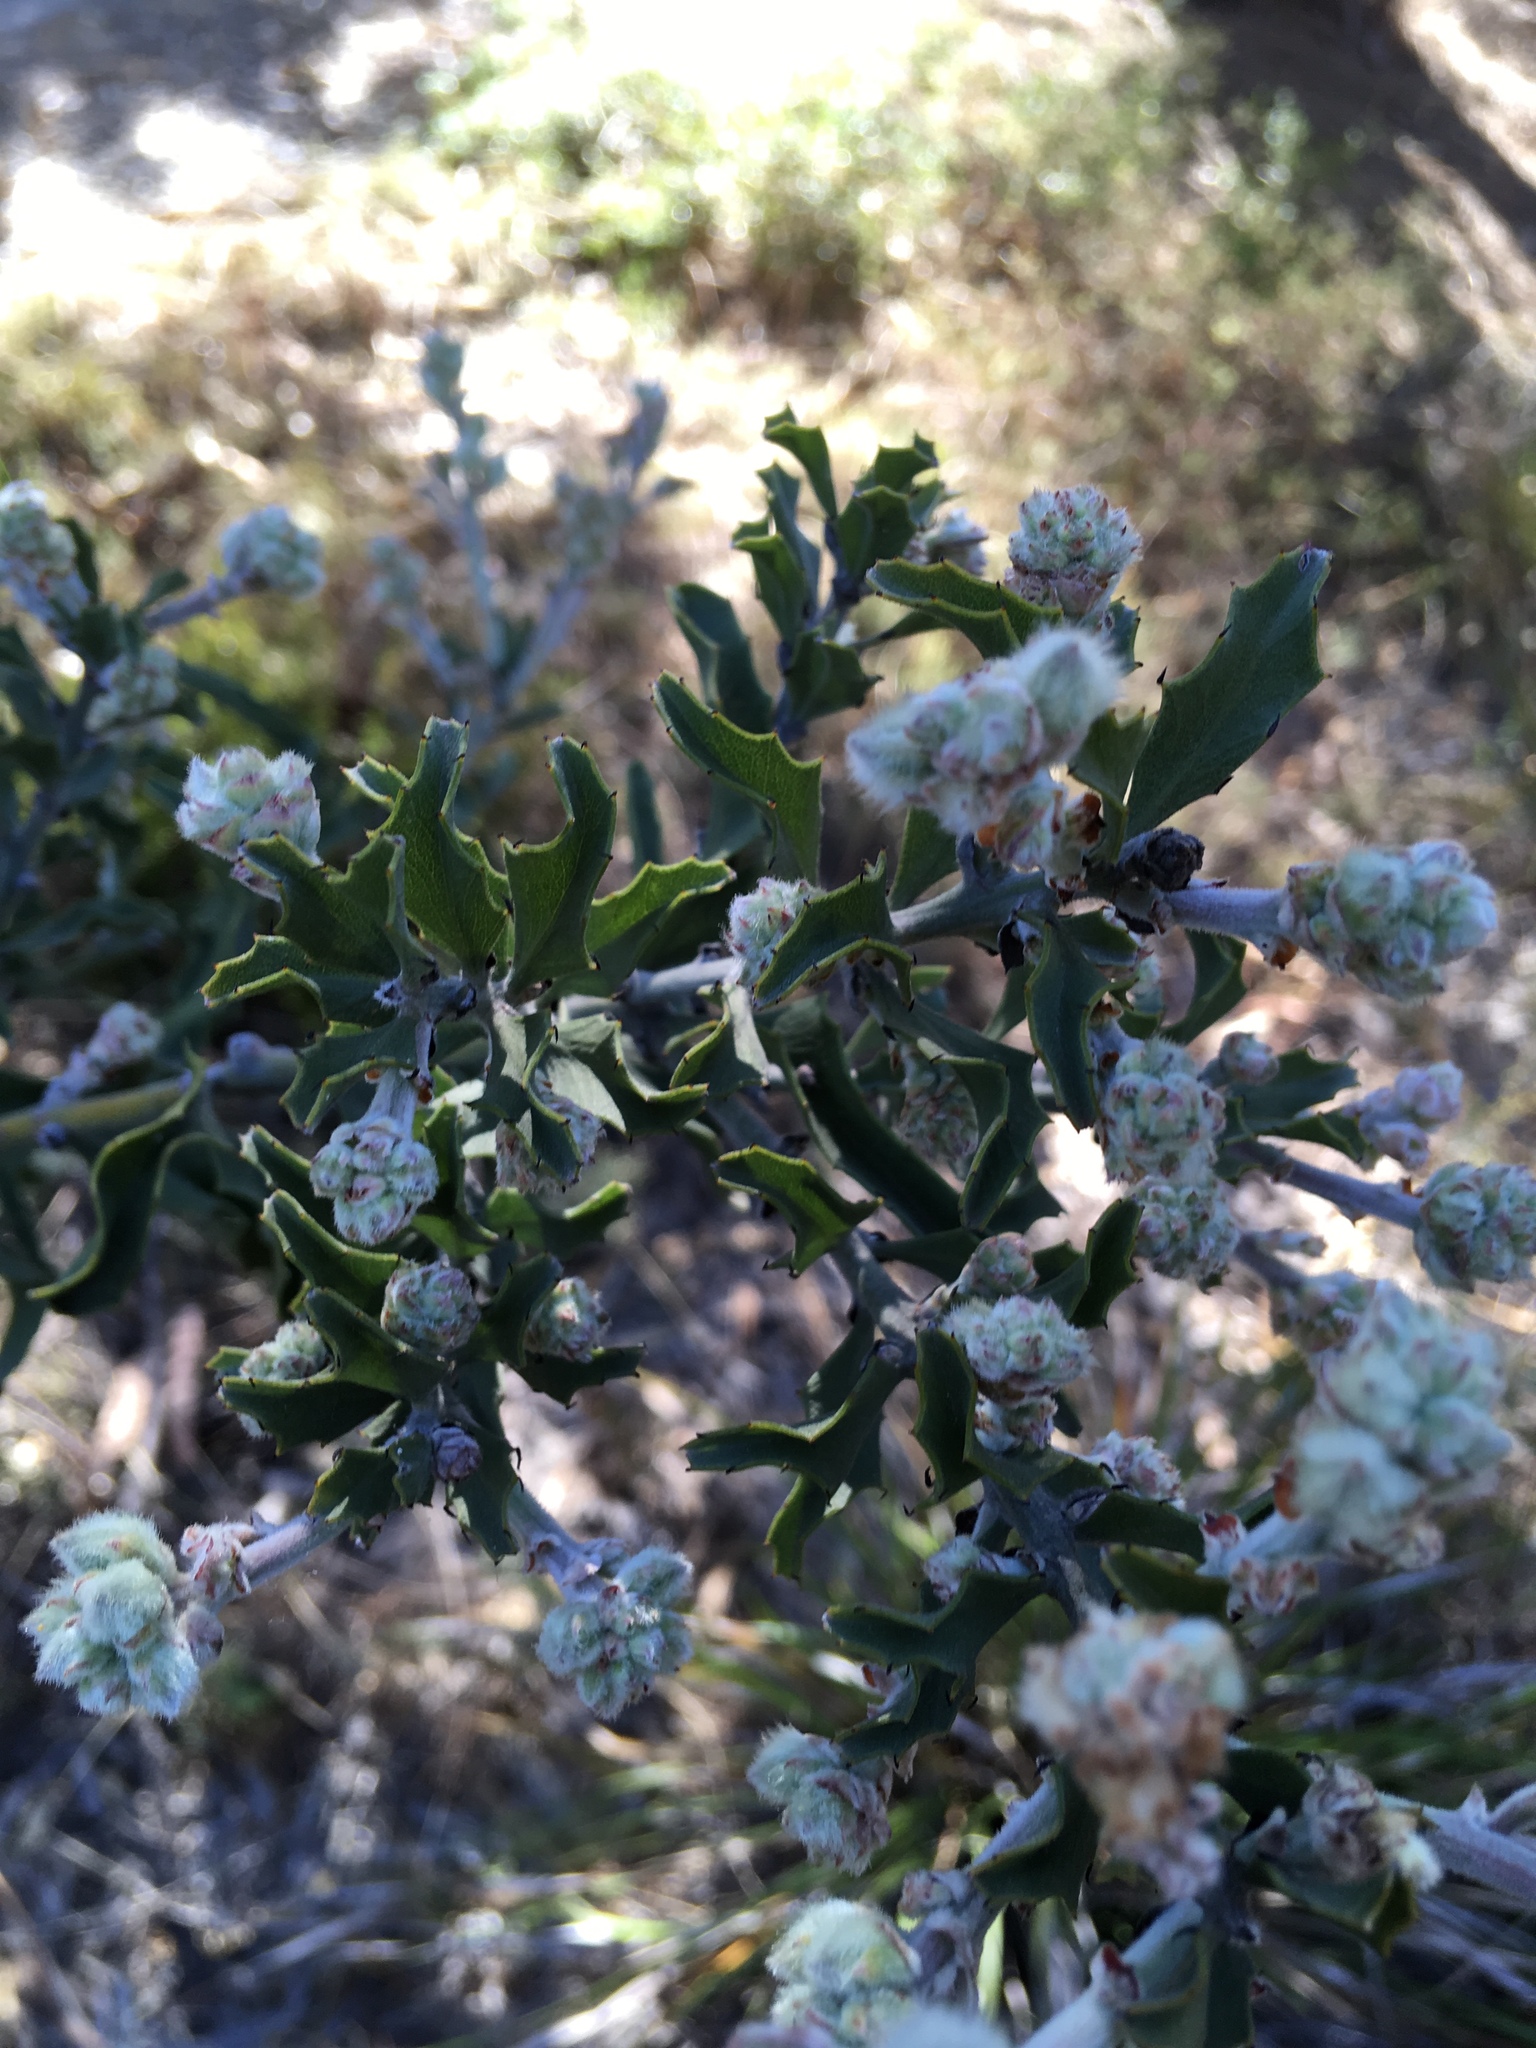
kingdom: Plantae
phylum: Tracheophyta
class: Magnoliopsida
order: Fabales
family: Fabaceae
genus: Jacksonia
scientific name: Jacksonia floribunda
